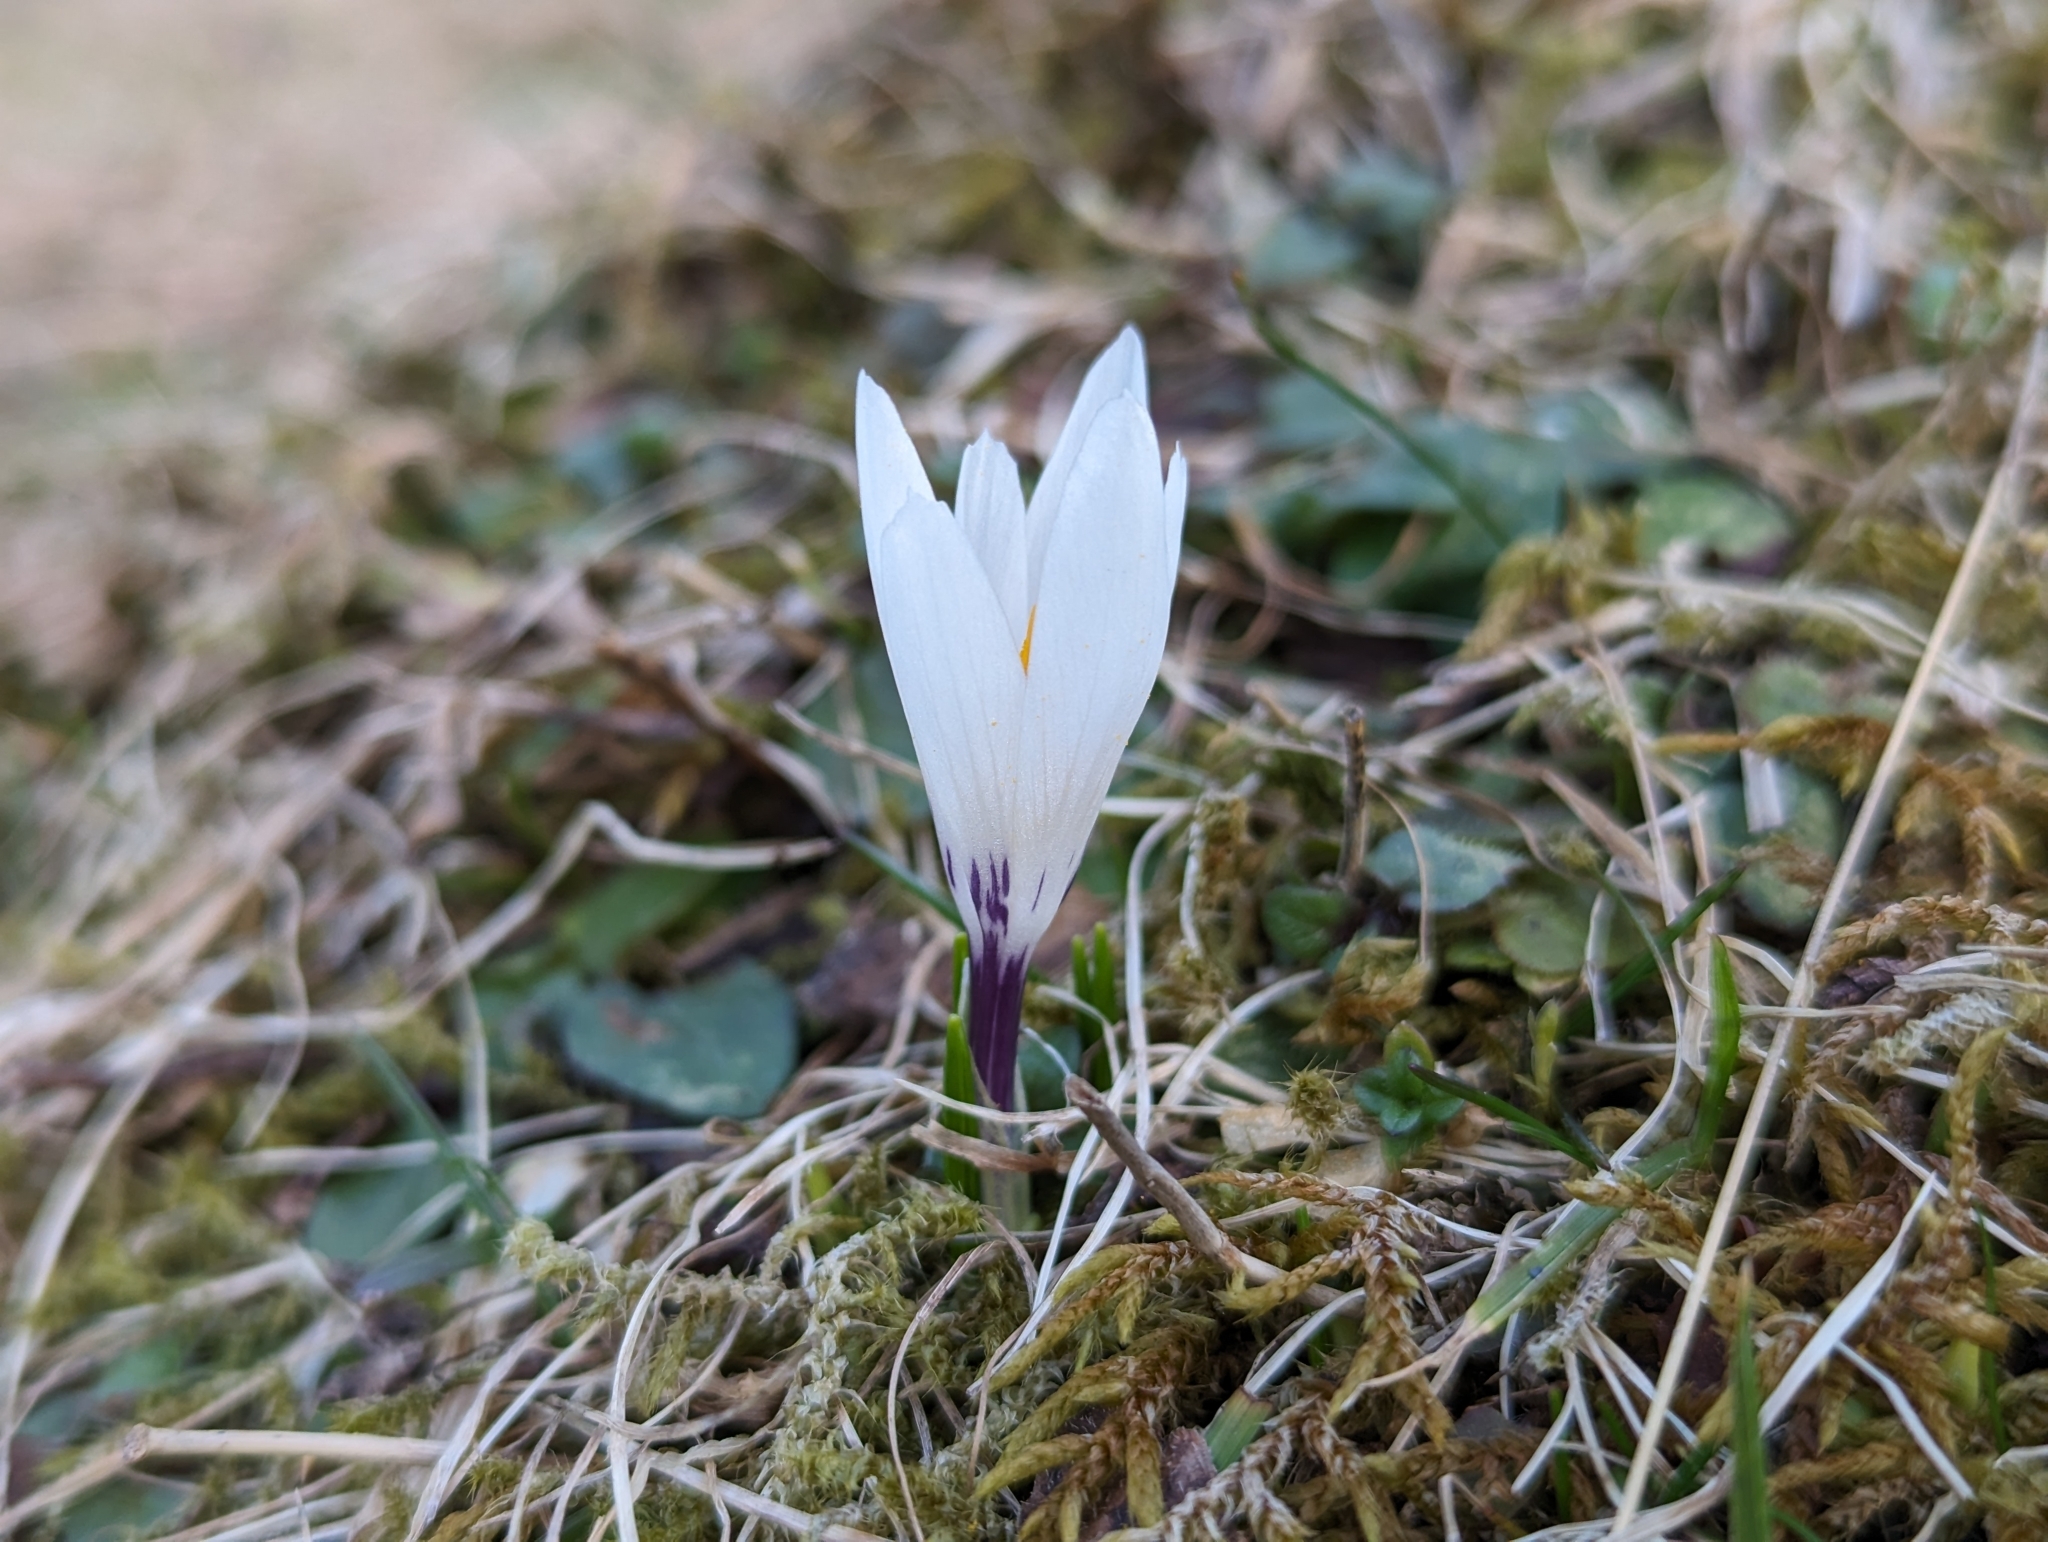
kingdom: Plantae
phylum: Tracheophyta
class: Liliopsida
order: Asparagales
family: Iridaceae
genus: Crocus
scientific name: Crocus vernus
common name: Spring crocus
